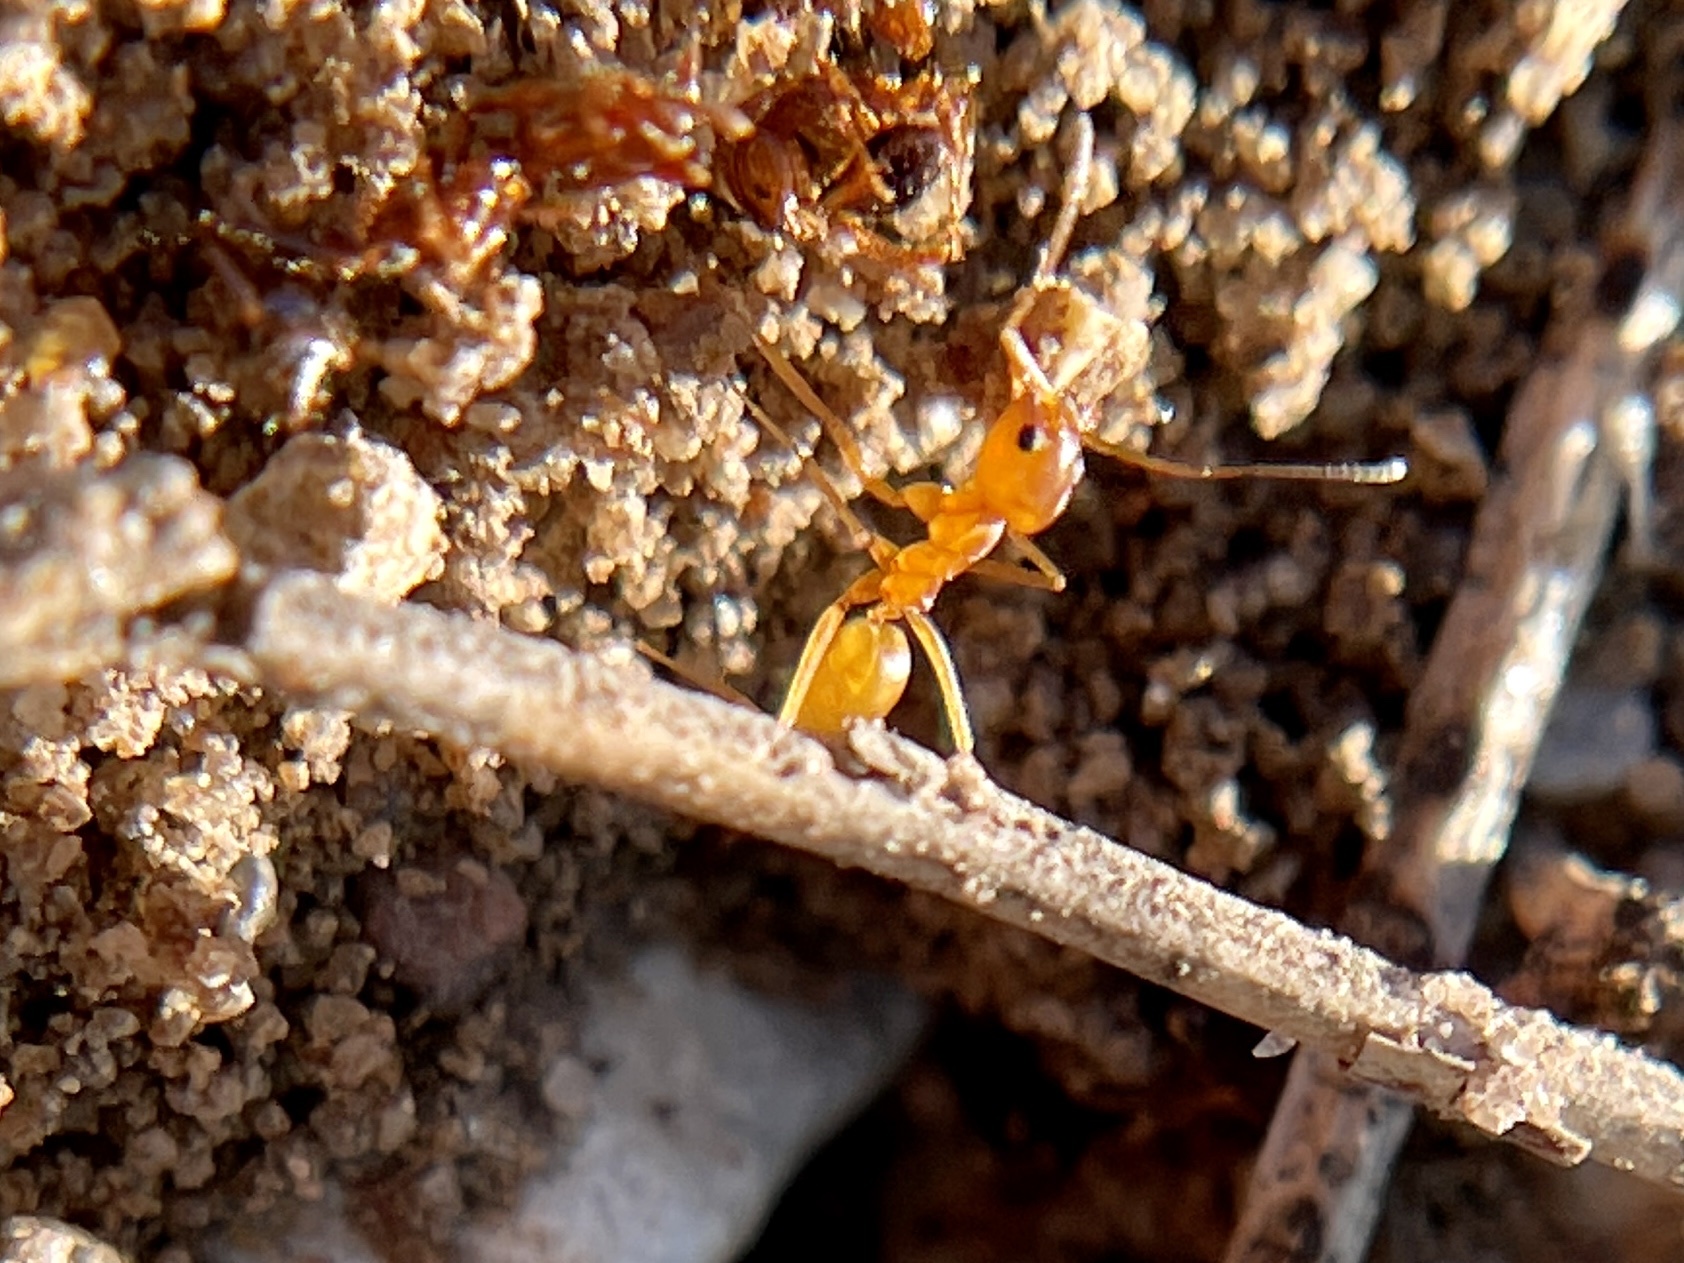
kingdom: Animalia
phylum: Arthropoda
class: Insecta
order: Hymenoptera
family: Formicidae
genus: Dorymyrmex
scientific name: Dorymyrmex flavus
